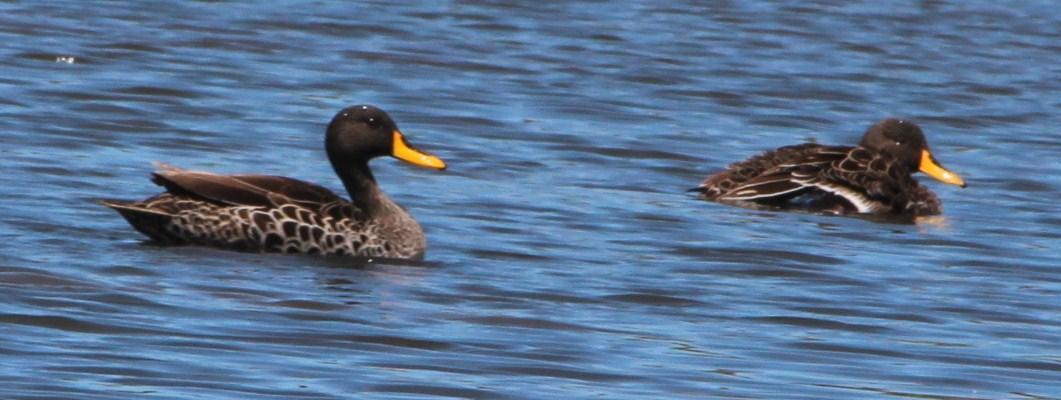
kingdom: Animalia
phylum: Chordata
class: Aves
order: Anseriformes
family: Anatidae
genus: Anas
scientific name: Anas undulata
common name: Yellow-billed duck
